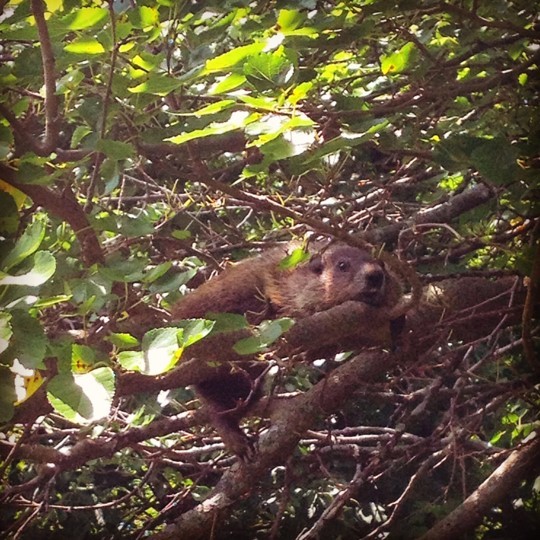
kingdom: Animalia
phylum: Chordata
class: Mammalia
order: Rodentia
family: Sciuridae
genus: Marmota
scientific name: Marmota monax
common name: Groundhog
